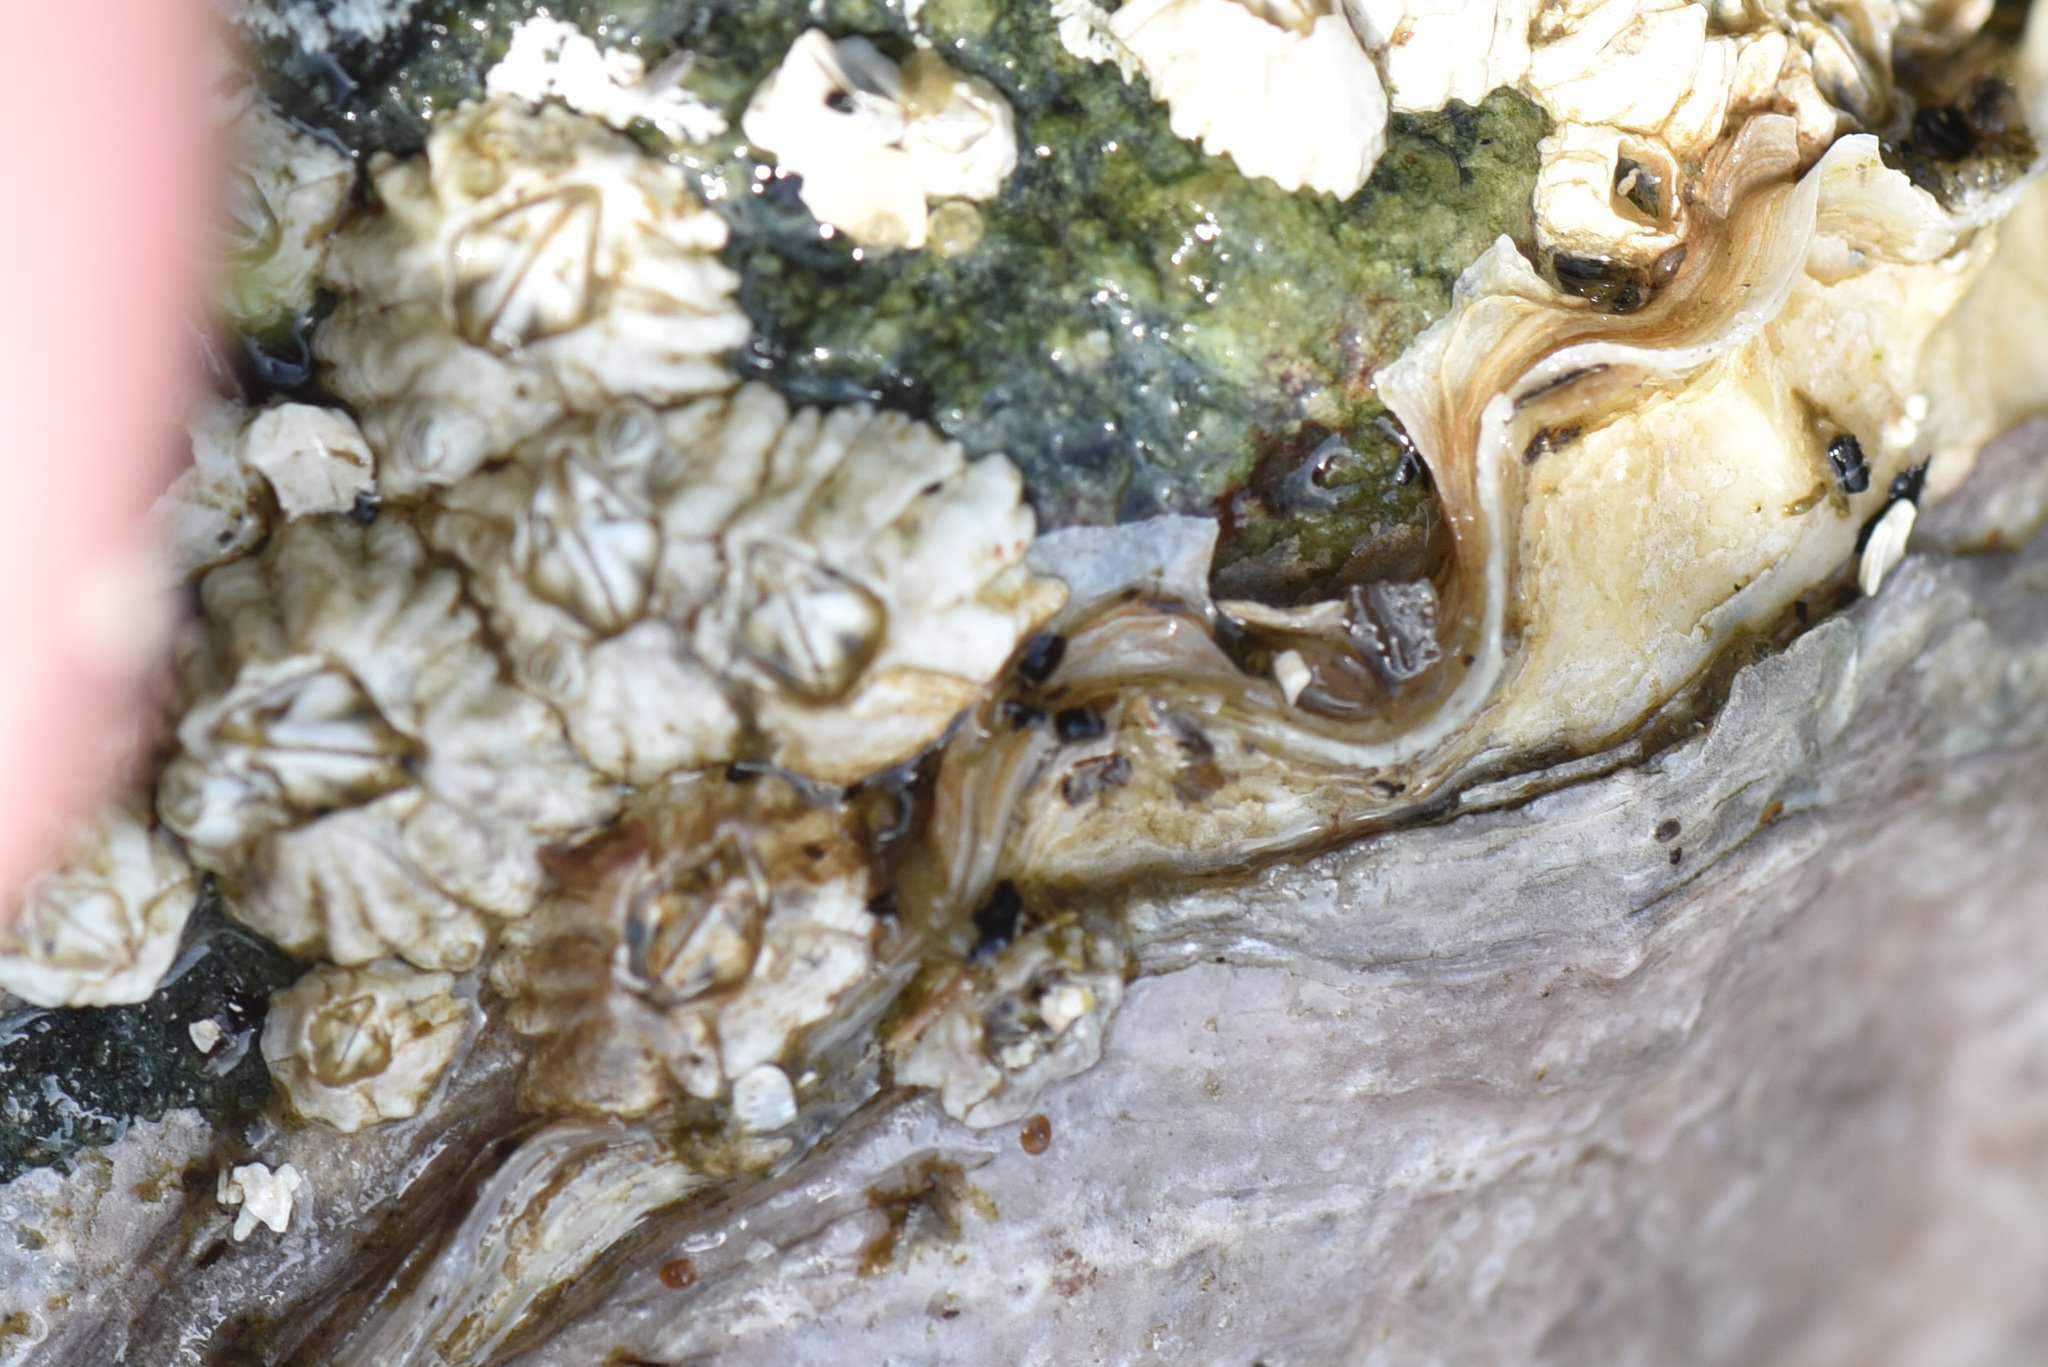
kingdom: Animalia
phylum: Arthropoda
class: Maxillopoda
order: Sessilia
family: Balanidae
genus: Balanus
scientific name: Balanus glandula
